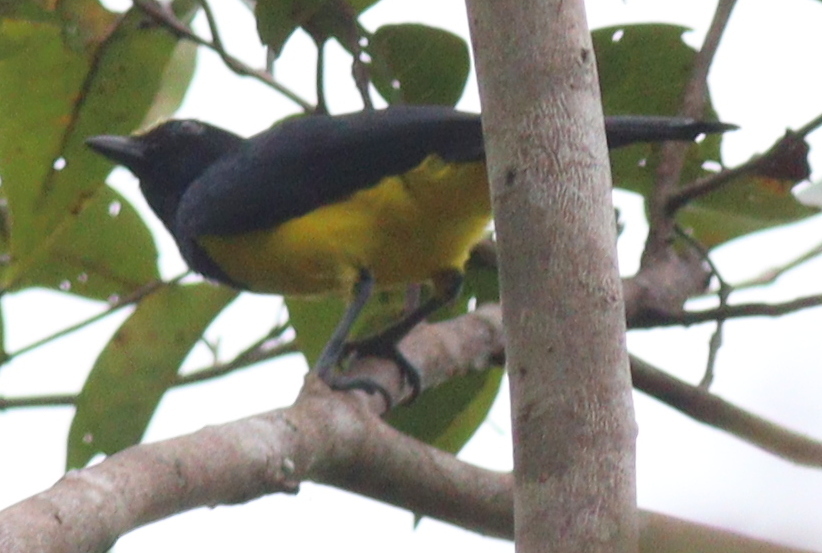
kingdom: Animalia
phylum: Chordata
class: Aves
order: Passeriformes
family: Paridae
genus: Melanochlora
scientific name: Melanochlora sultanea
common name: Sultan tit
